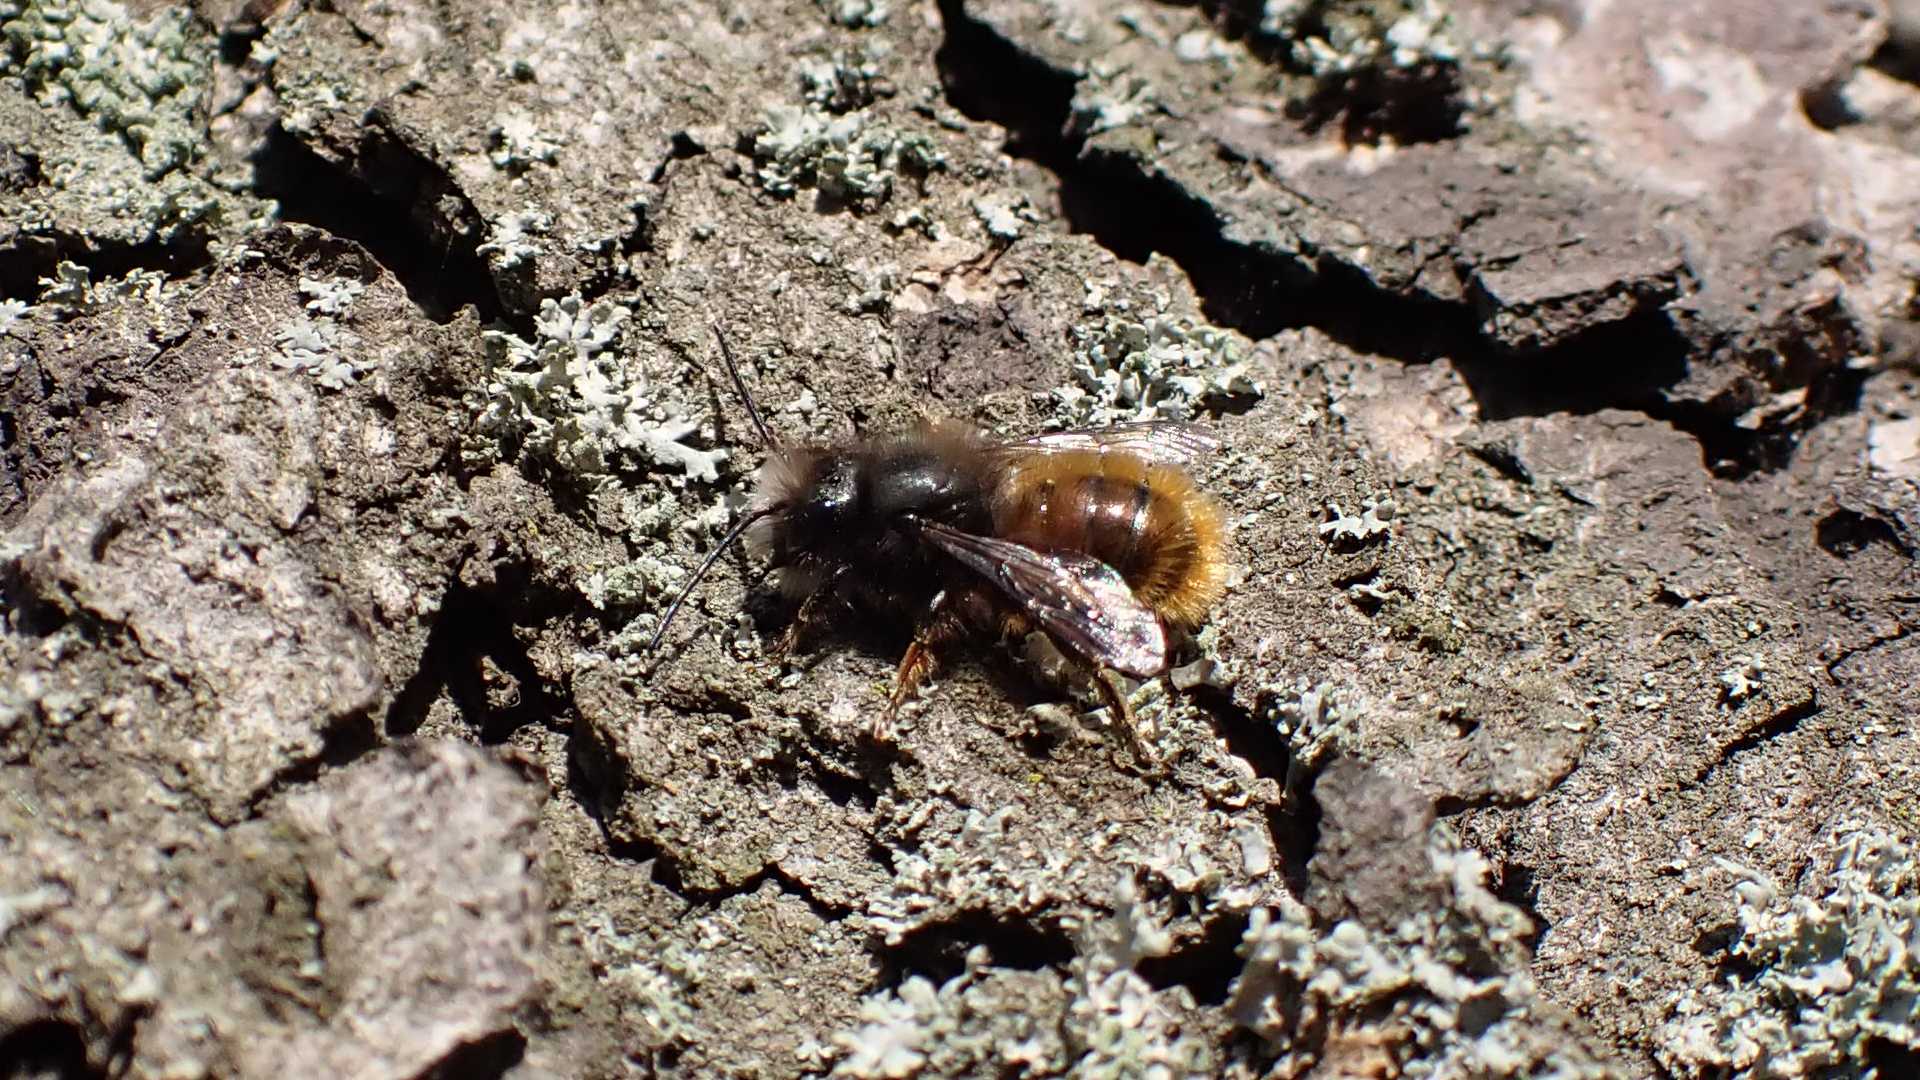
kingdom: Animalia
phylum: Arthropoda
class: Insecta
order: Hymenoptera
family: Megachilidae
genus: Osmia
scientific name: Osmia cornuta
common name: Mason bee
